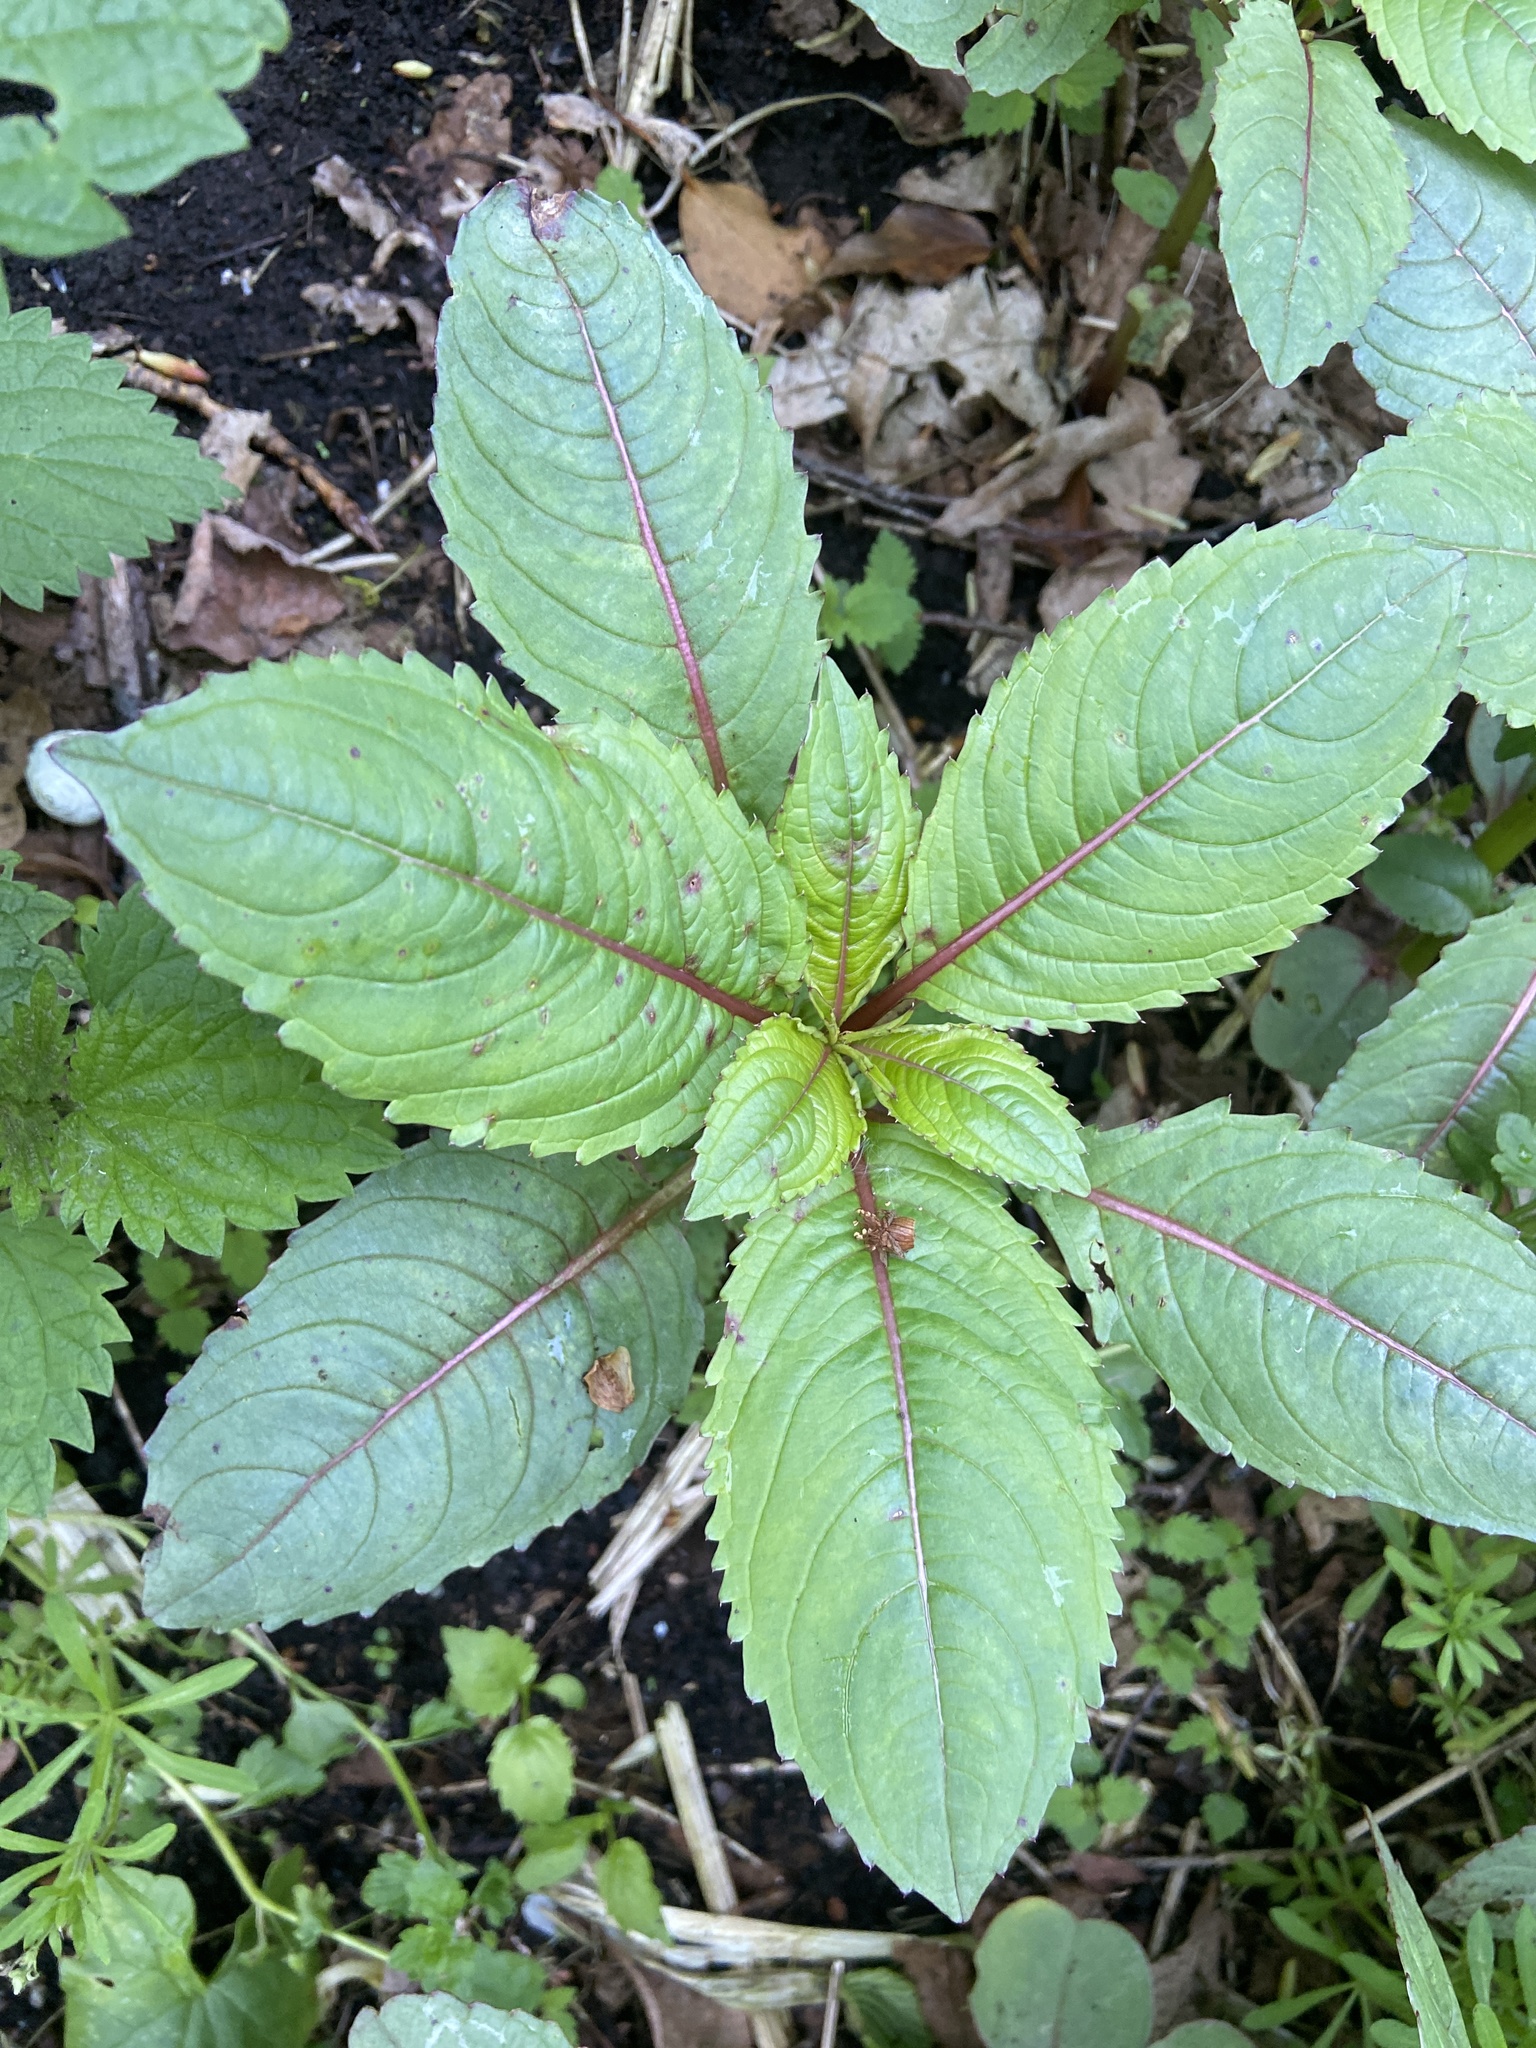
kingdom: Plantae
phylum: Tracheophyta
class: Magnoliopsida
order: Ericales
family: Balsaminaceae
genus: Impatiens
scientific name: Impatiens glandulifera
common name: Himalayan balsam
